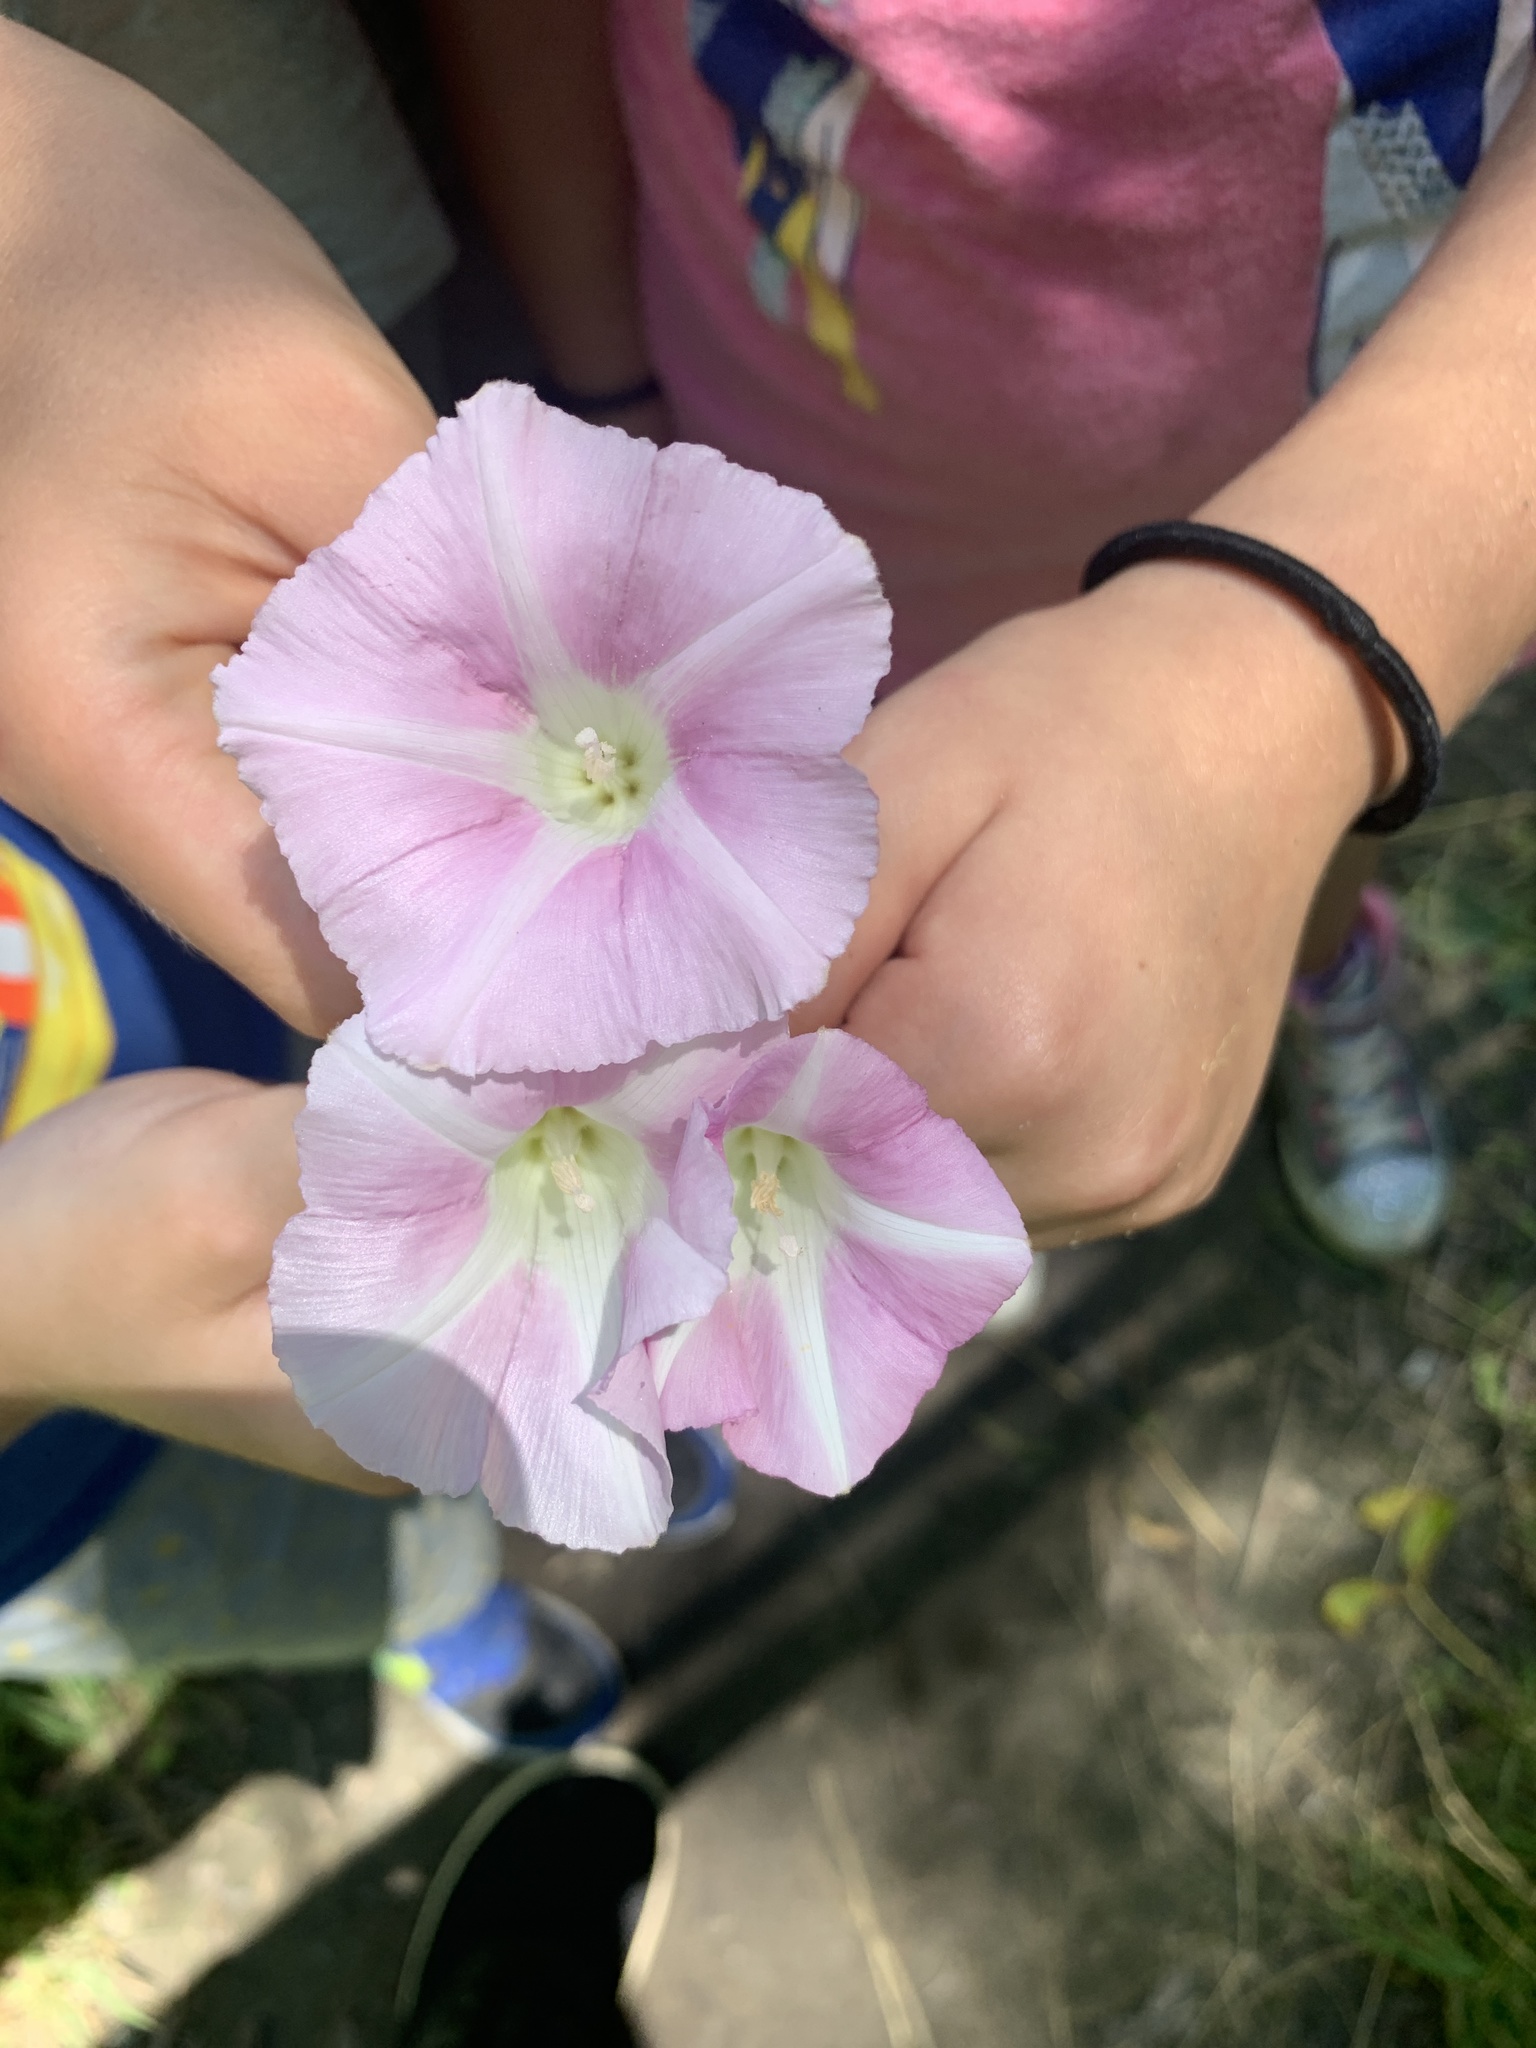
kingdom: Plantae
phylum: Tracheophyta
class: Magnoliopsida
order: Solanales
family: Convolvulaceae
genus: Calystegia
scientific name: Calystegia sepium
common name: Hedge bindweed
